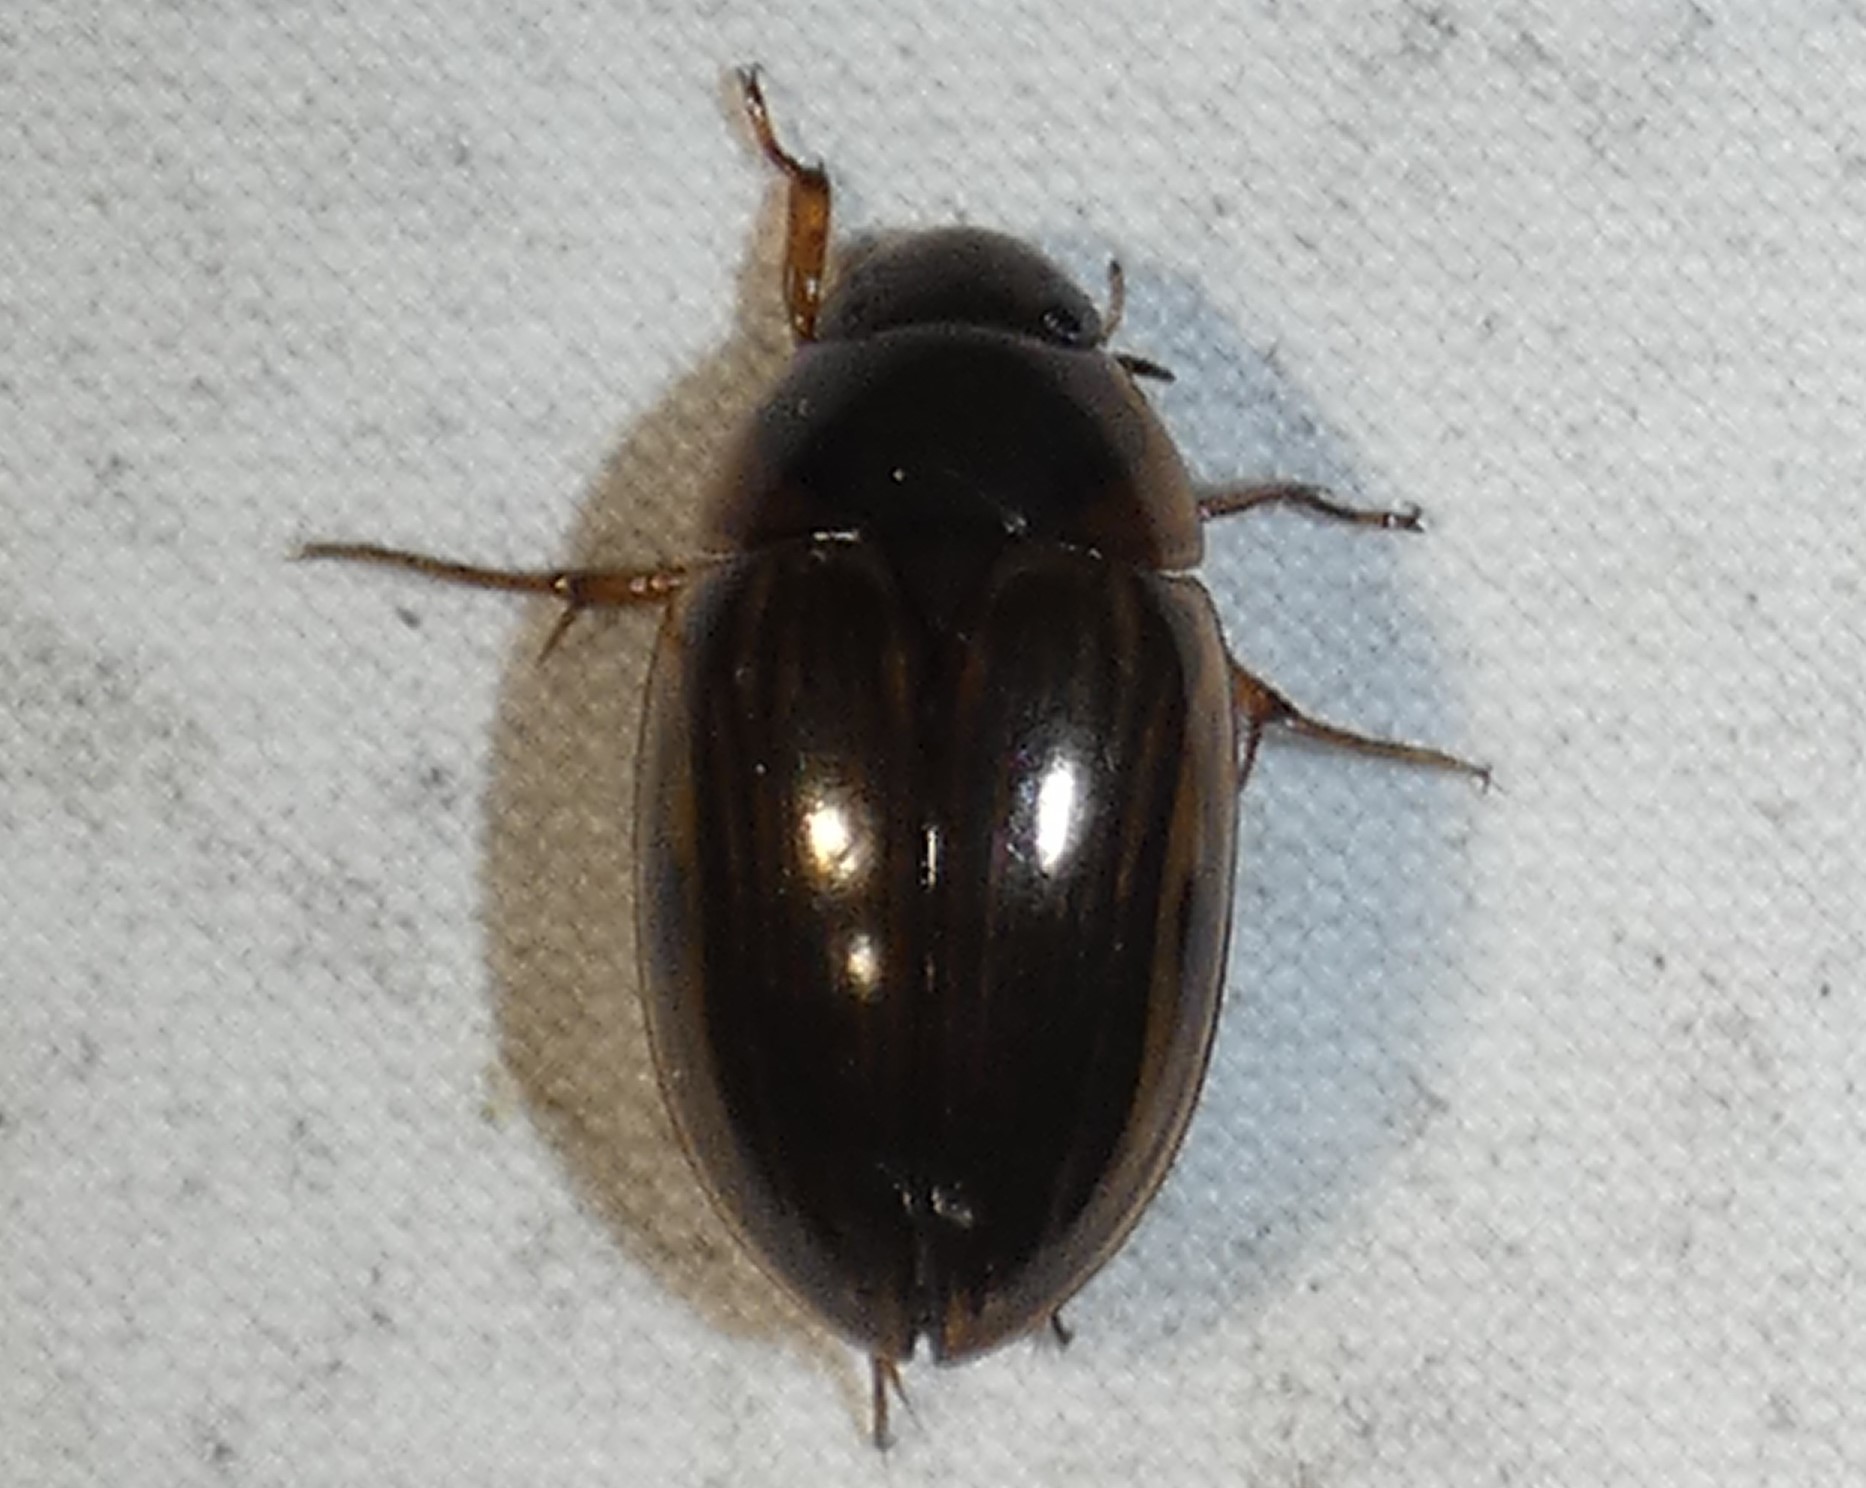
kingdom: Animalia
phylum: Arthropoda
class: Insecta
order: Coleoptera
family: Hydrophilidae
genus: Tropisternus
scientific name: Tropisternus collaris
